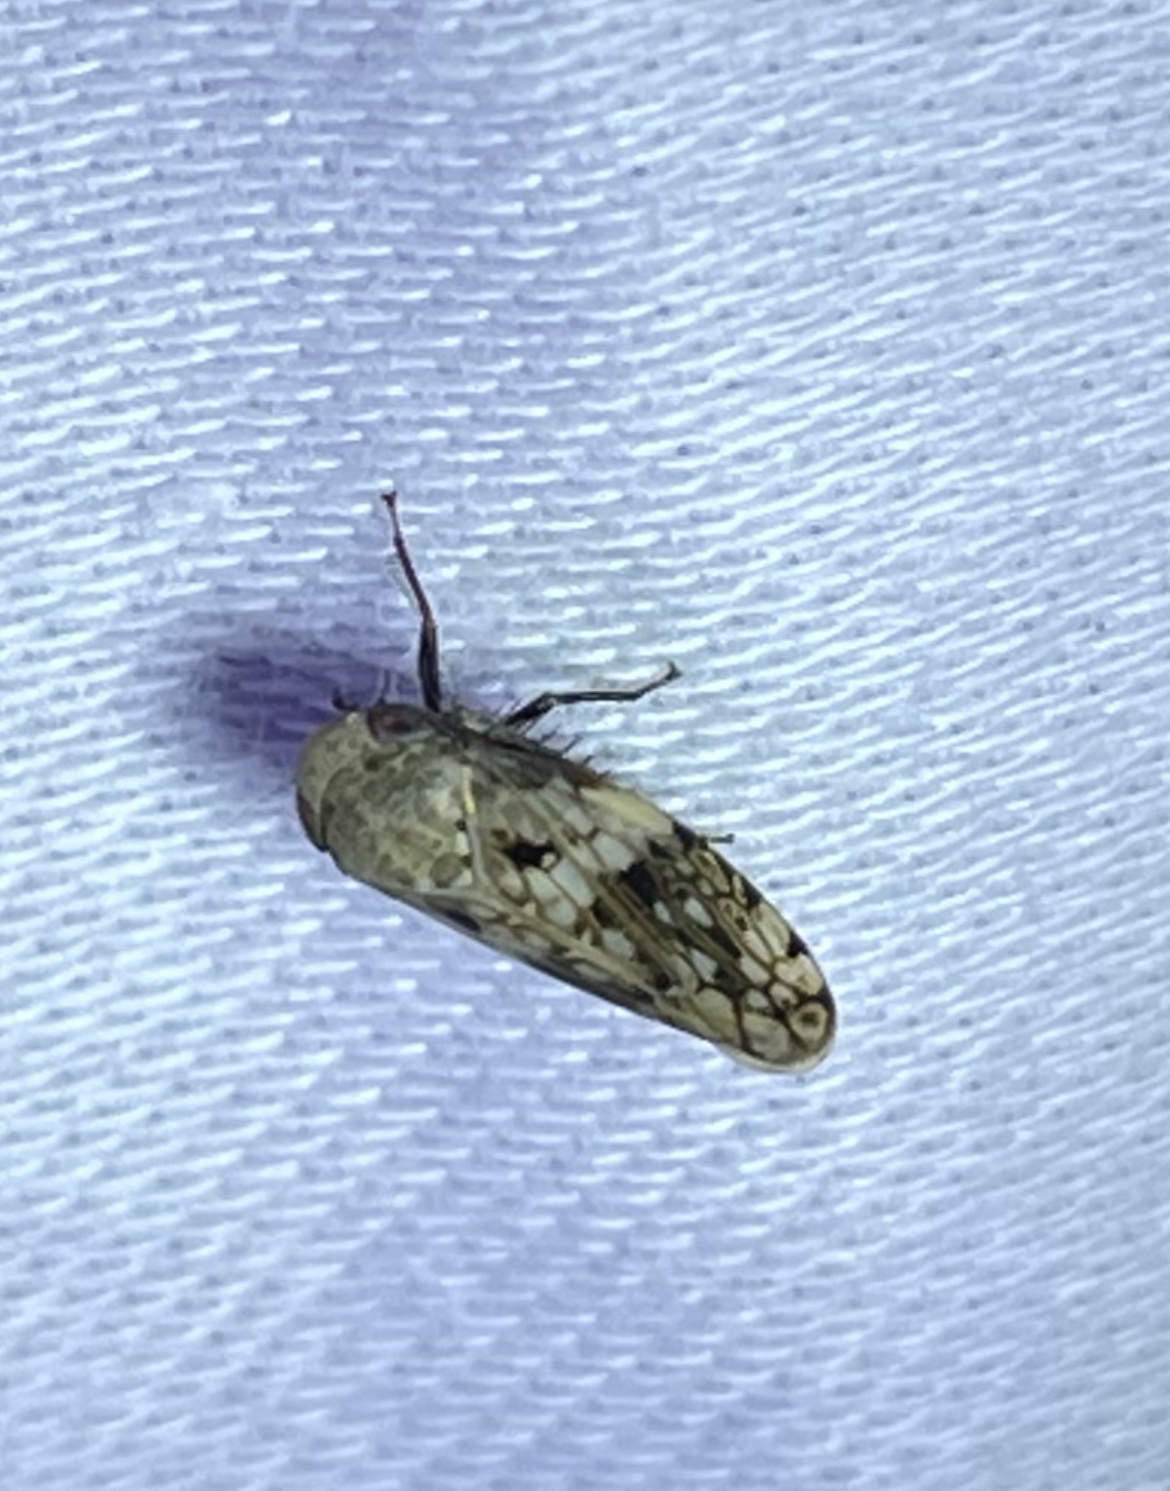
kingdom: Animalia
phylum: Arthropoda
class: Insecta
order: Hemiptera
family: Cicadellidae
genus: Menosoma
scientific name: Menosoma cinctum
